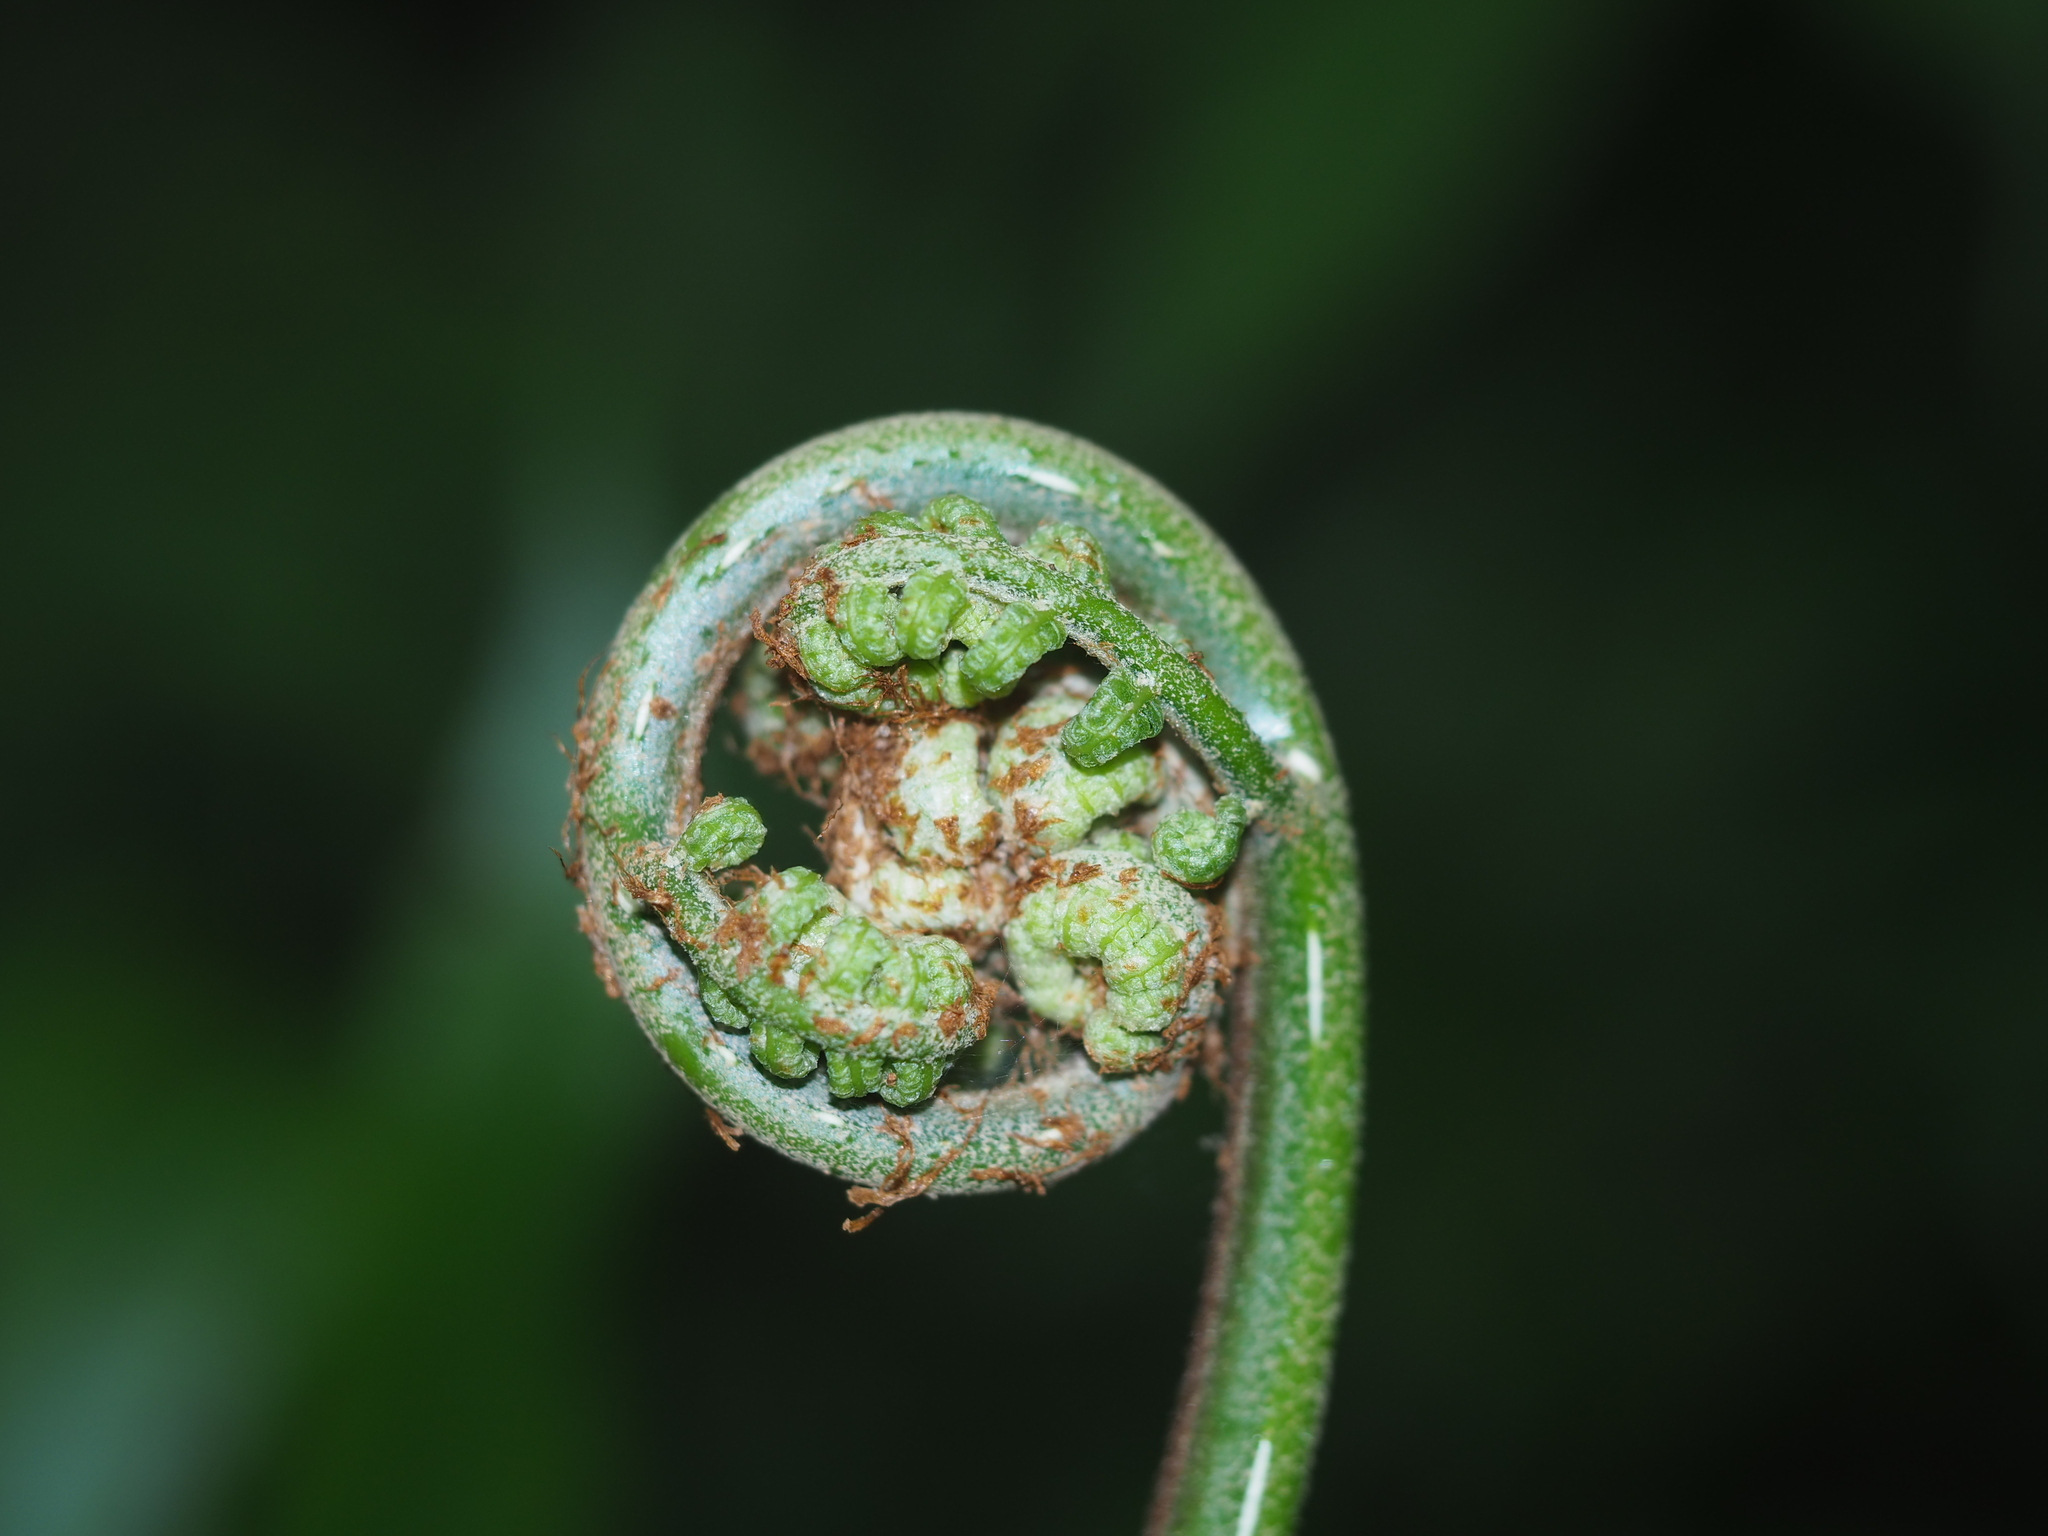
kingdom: Plantae
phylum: Tracheophyta
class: Polypodiopsida
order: Marattiales
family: Marattiaceae
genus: Angiopteris
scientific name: Angiopteris lygodiifolia
